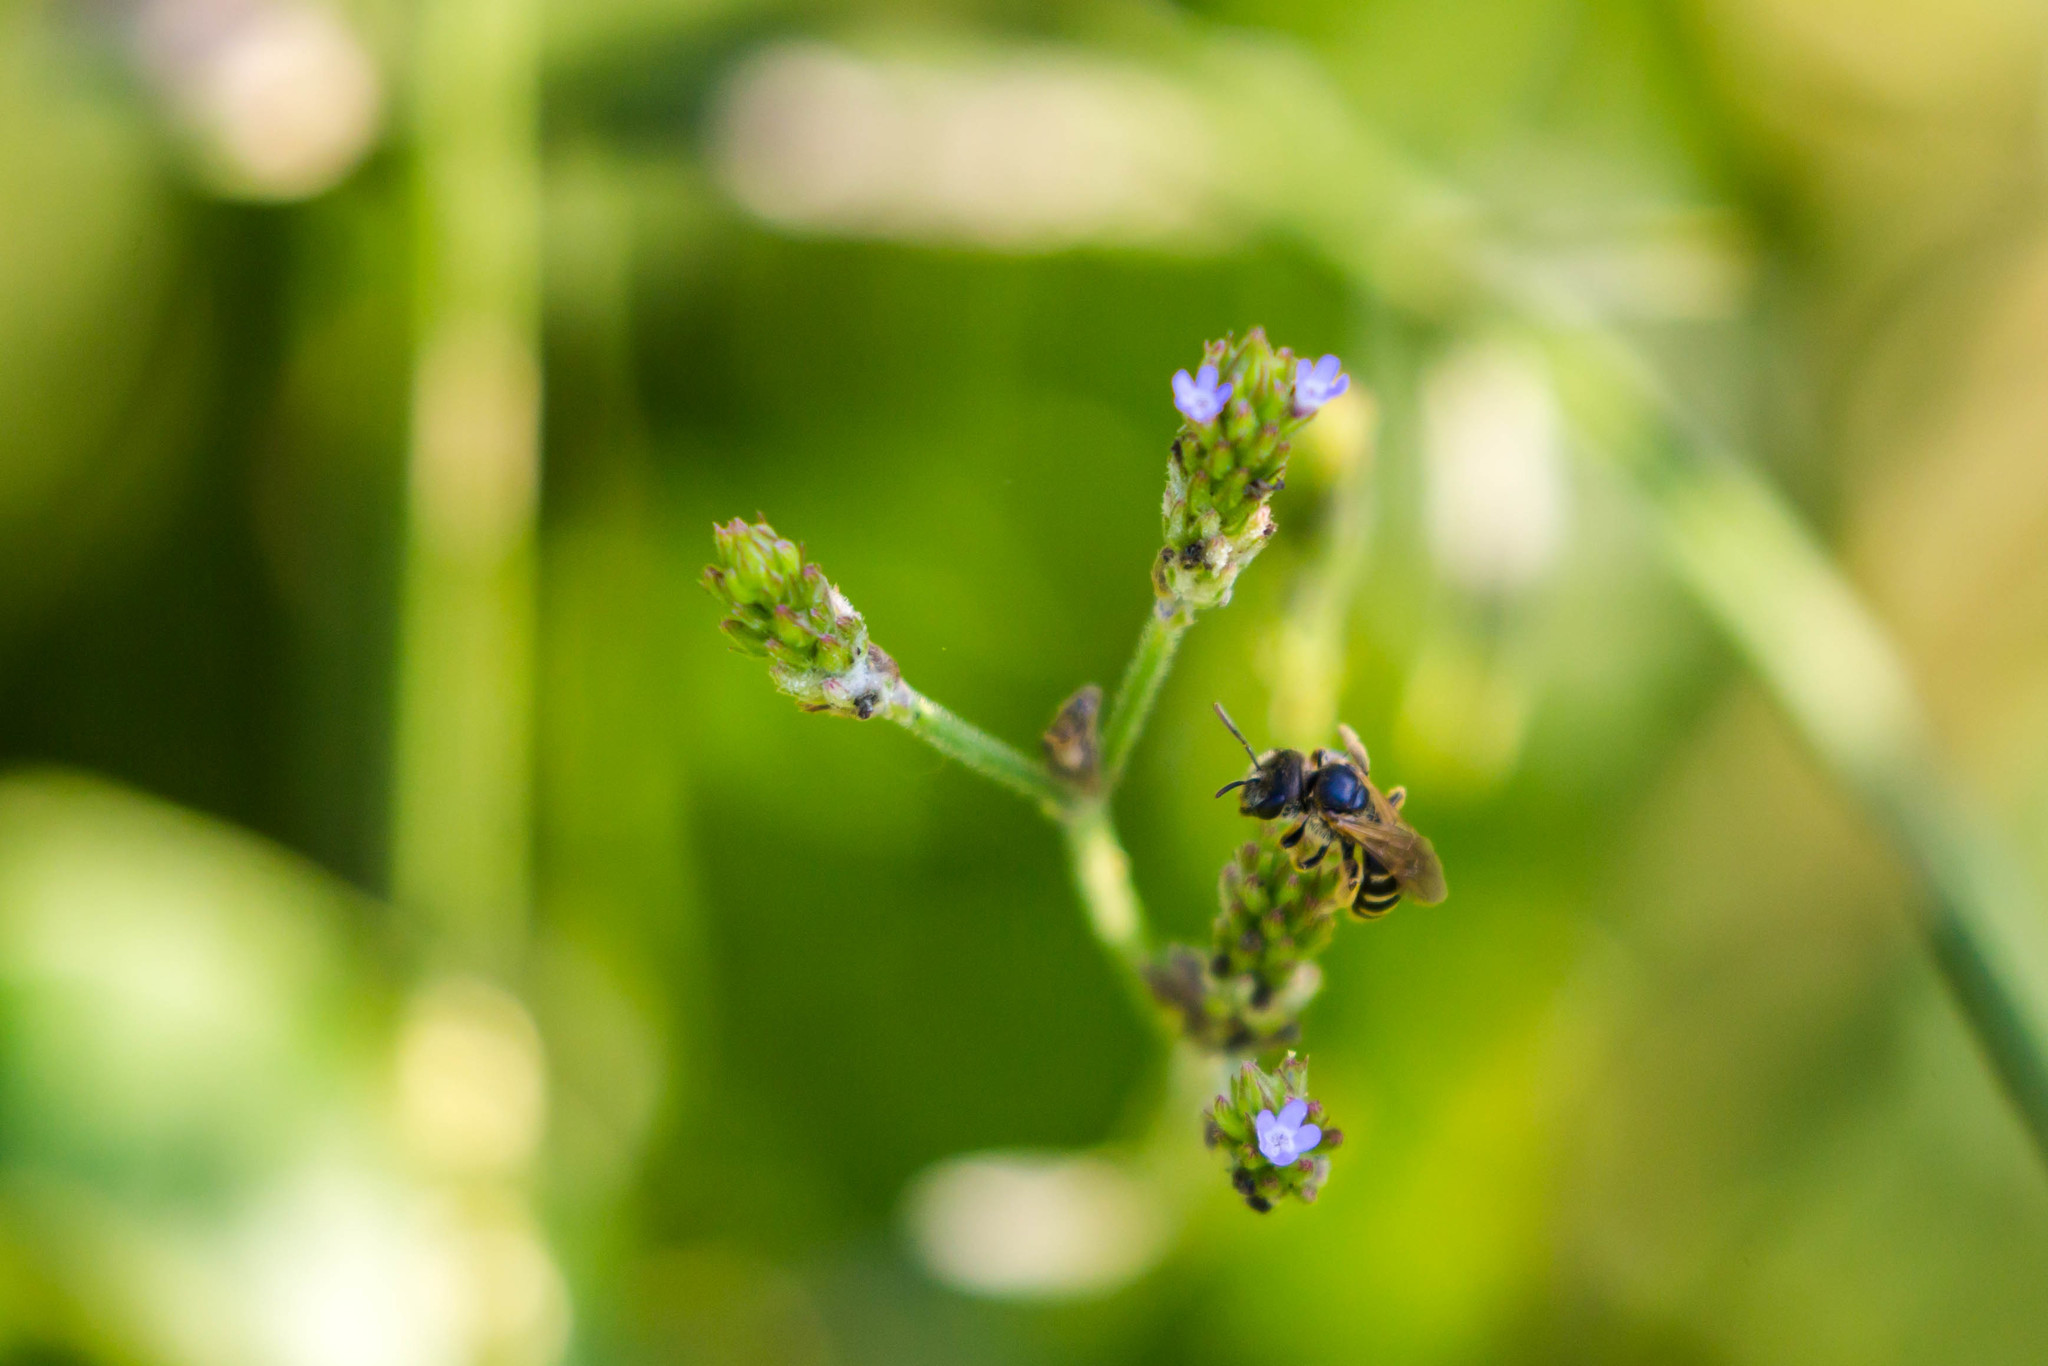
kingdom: Animalia
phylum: Arthropoda
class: Insecta
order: Hymenoptera
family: Halictidae
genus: Halictus
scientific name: Halictus ligatus
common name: Ligated furrow bee
